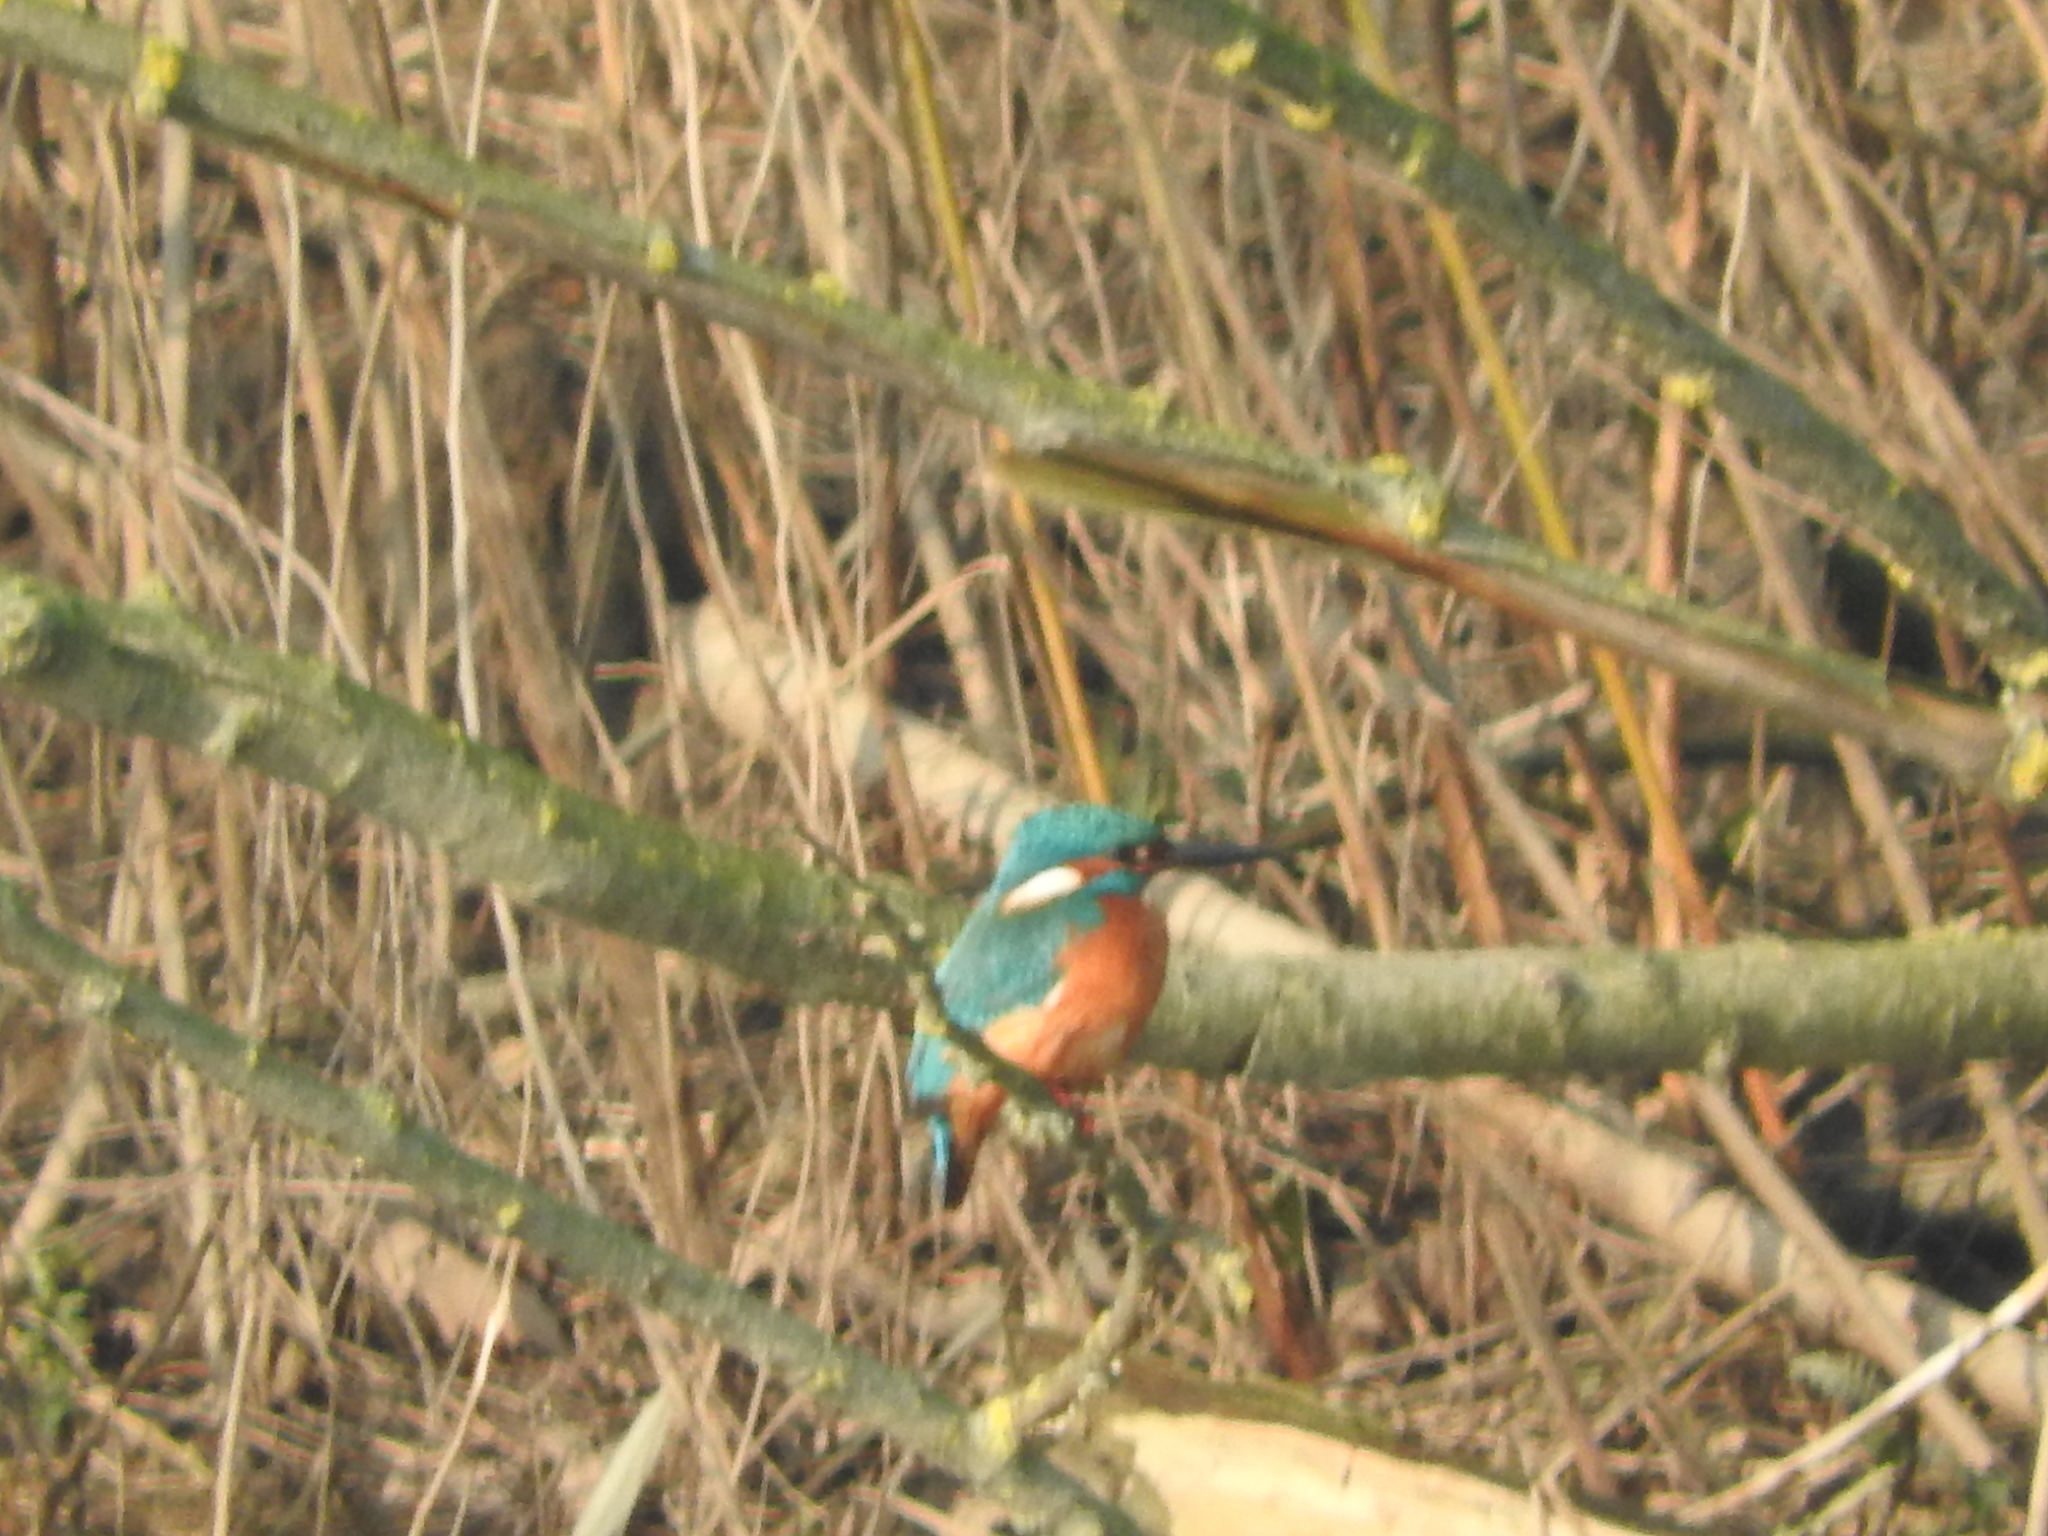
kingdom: Animalia
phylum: Chordata
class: Aves
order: Coraciiformes
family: Alcedinidae
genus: Alcedo
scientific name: Alcedo atthis
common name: Common kingfisher
